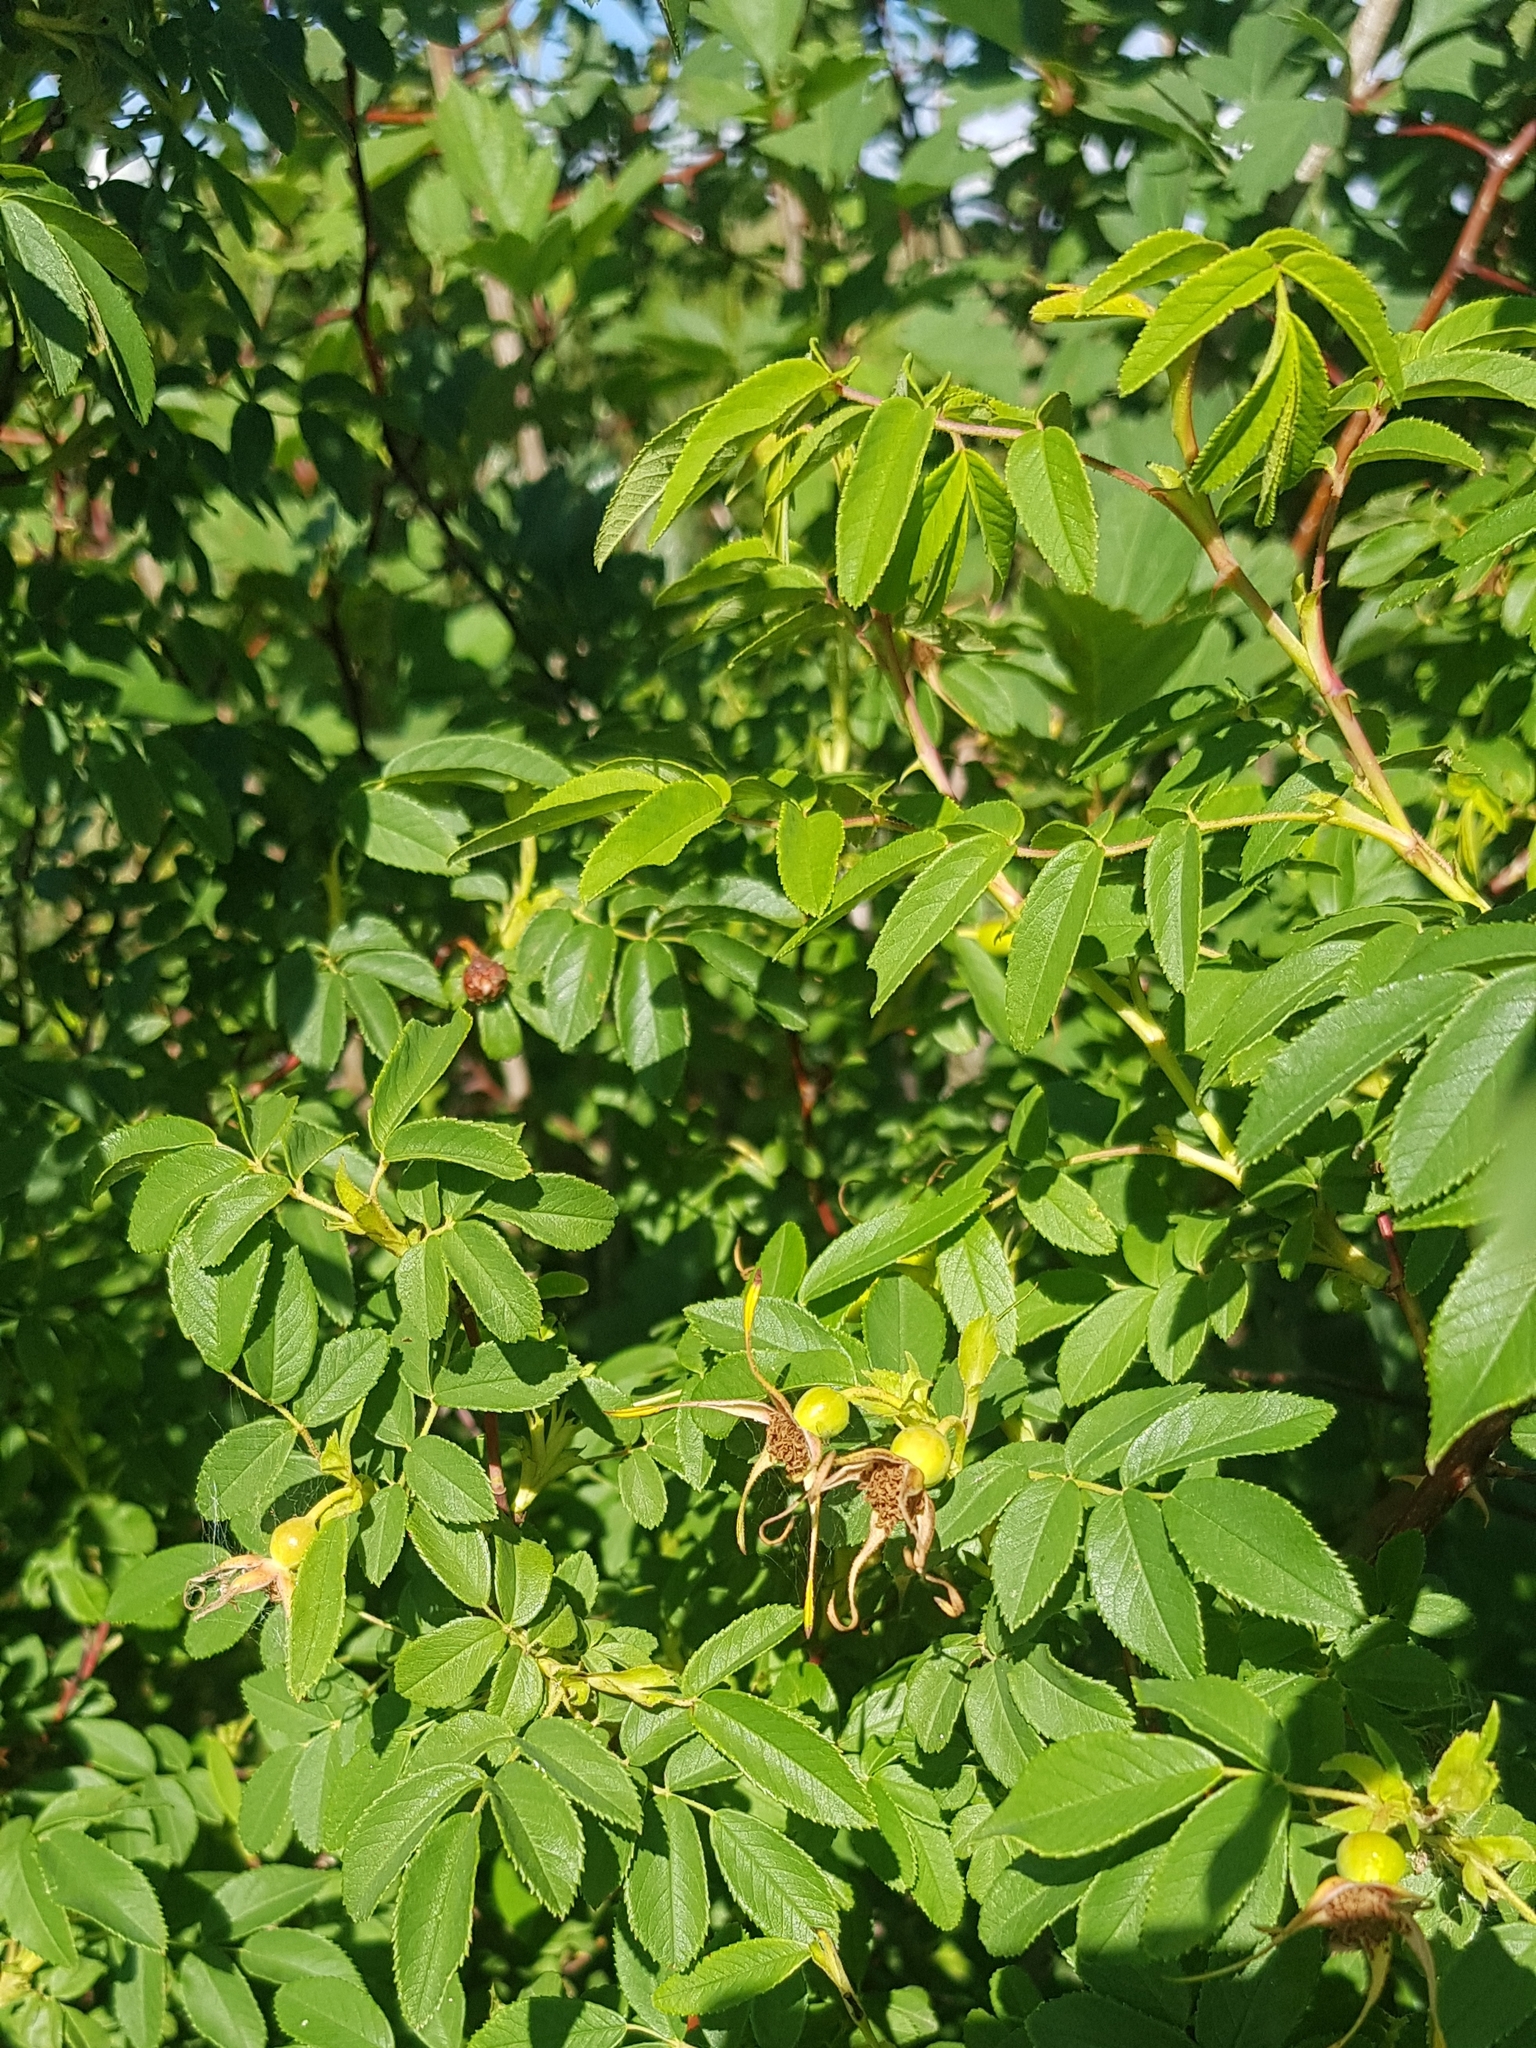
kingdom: Plantae
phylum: Tracheophyta
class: Magnoliopsida
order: Rosales
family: Rosaceae
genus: Rosa
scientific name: Rosa acicularis
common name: Prickly rose
